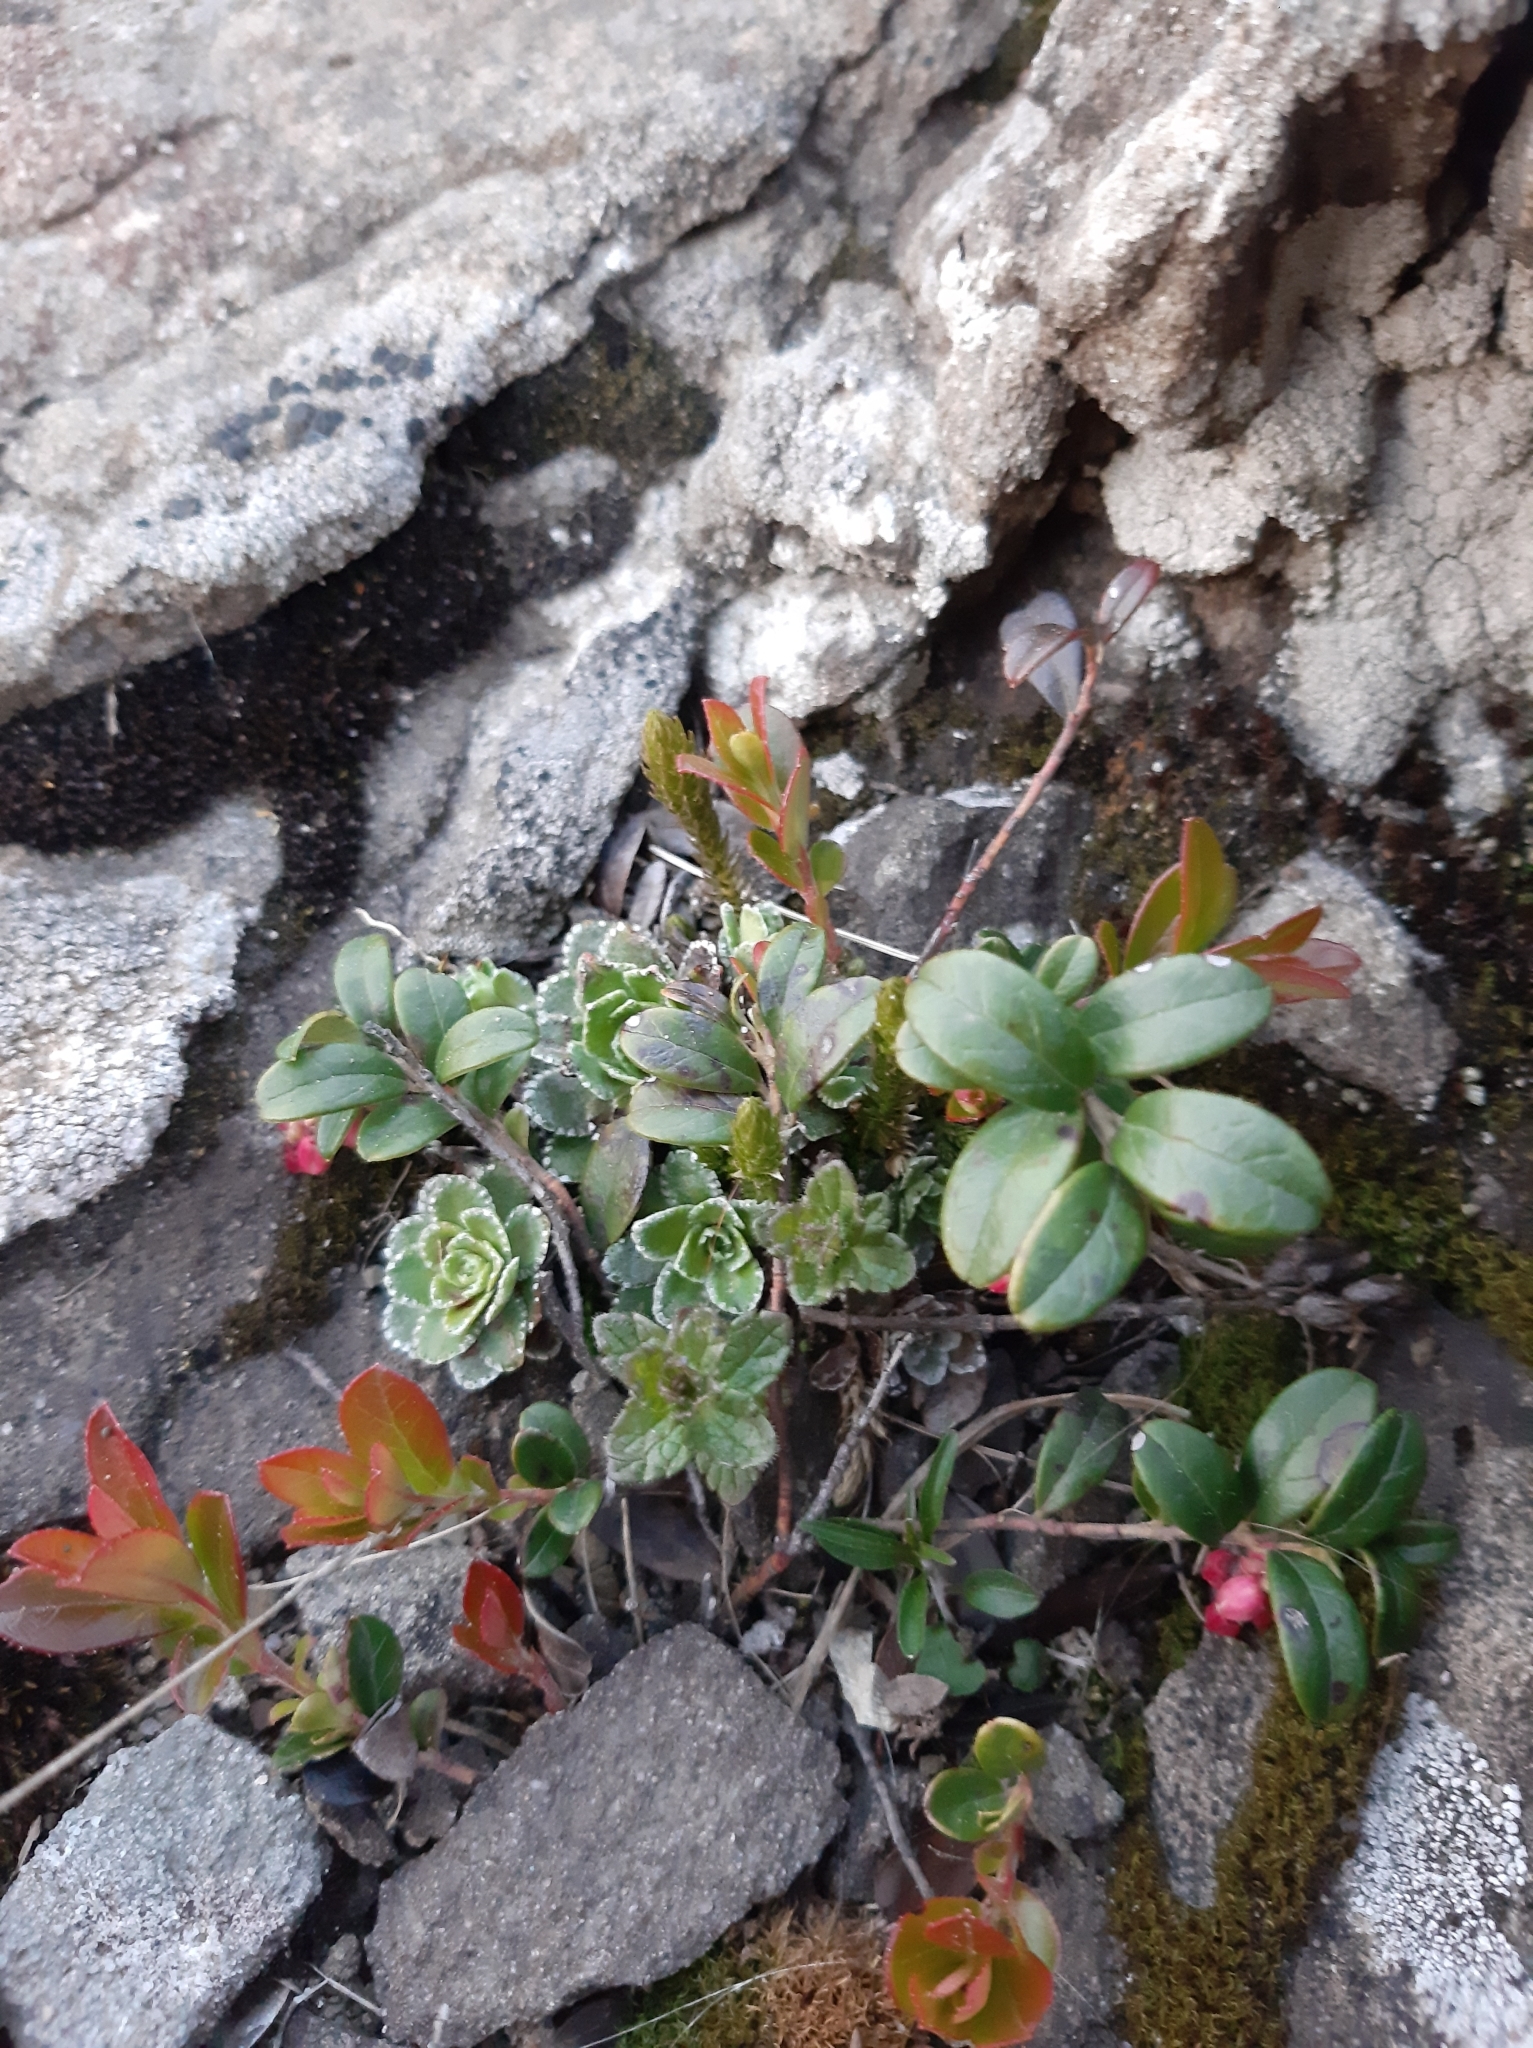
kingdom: Plantae
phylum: Tracheophyta
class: Magnoliopsida
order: Saxifragales
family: Saxifragaceae
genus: Saxifraga
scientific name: Saxifraga paniculata
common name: Livelong saxifrage
